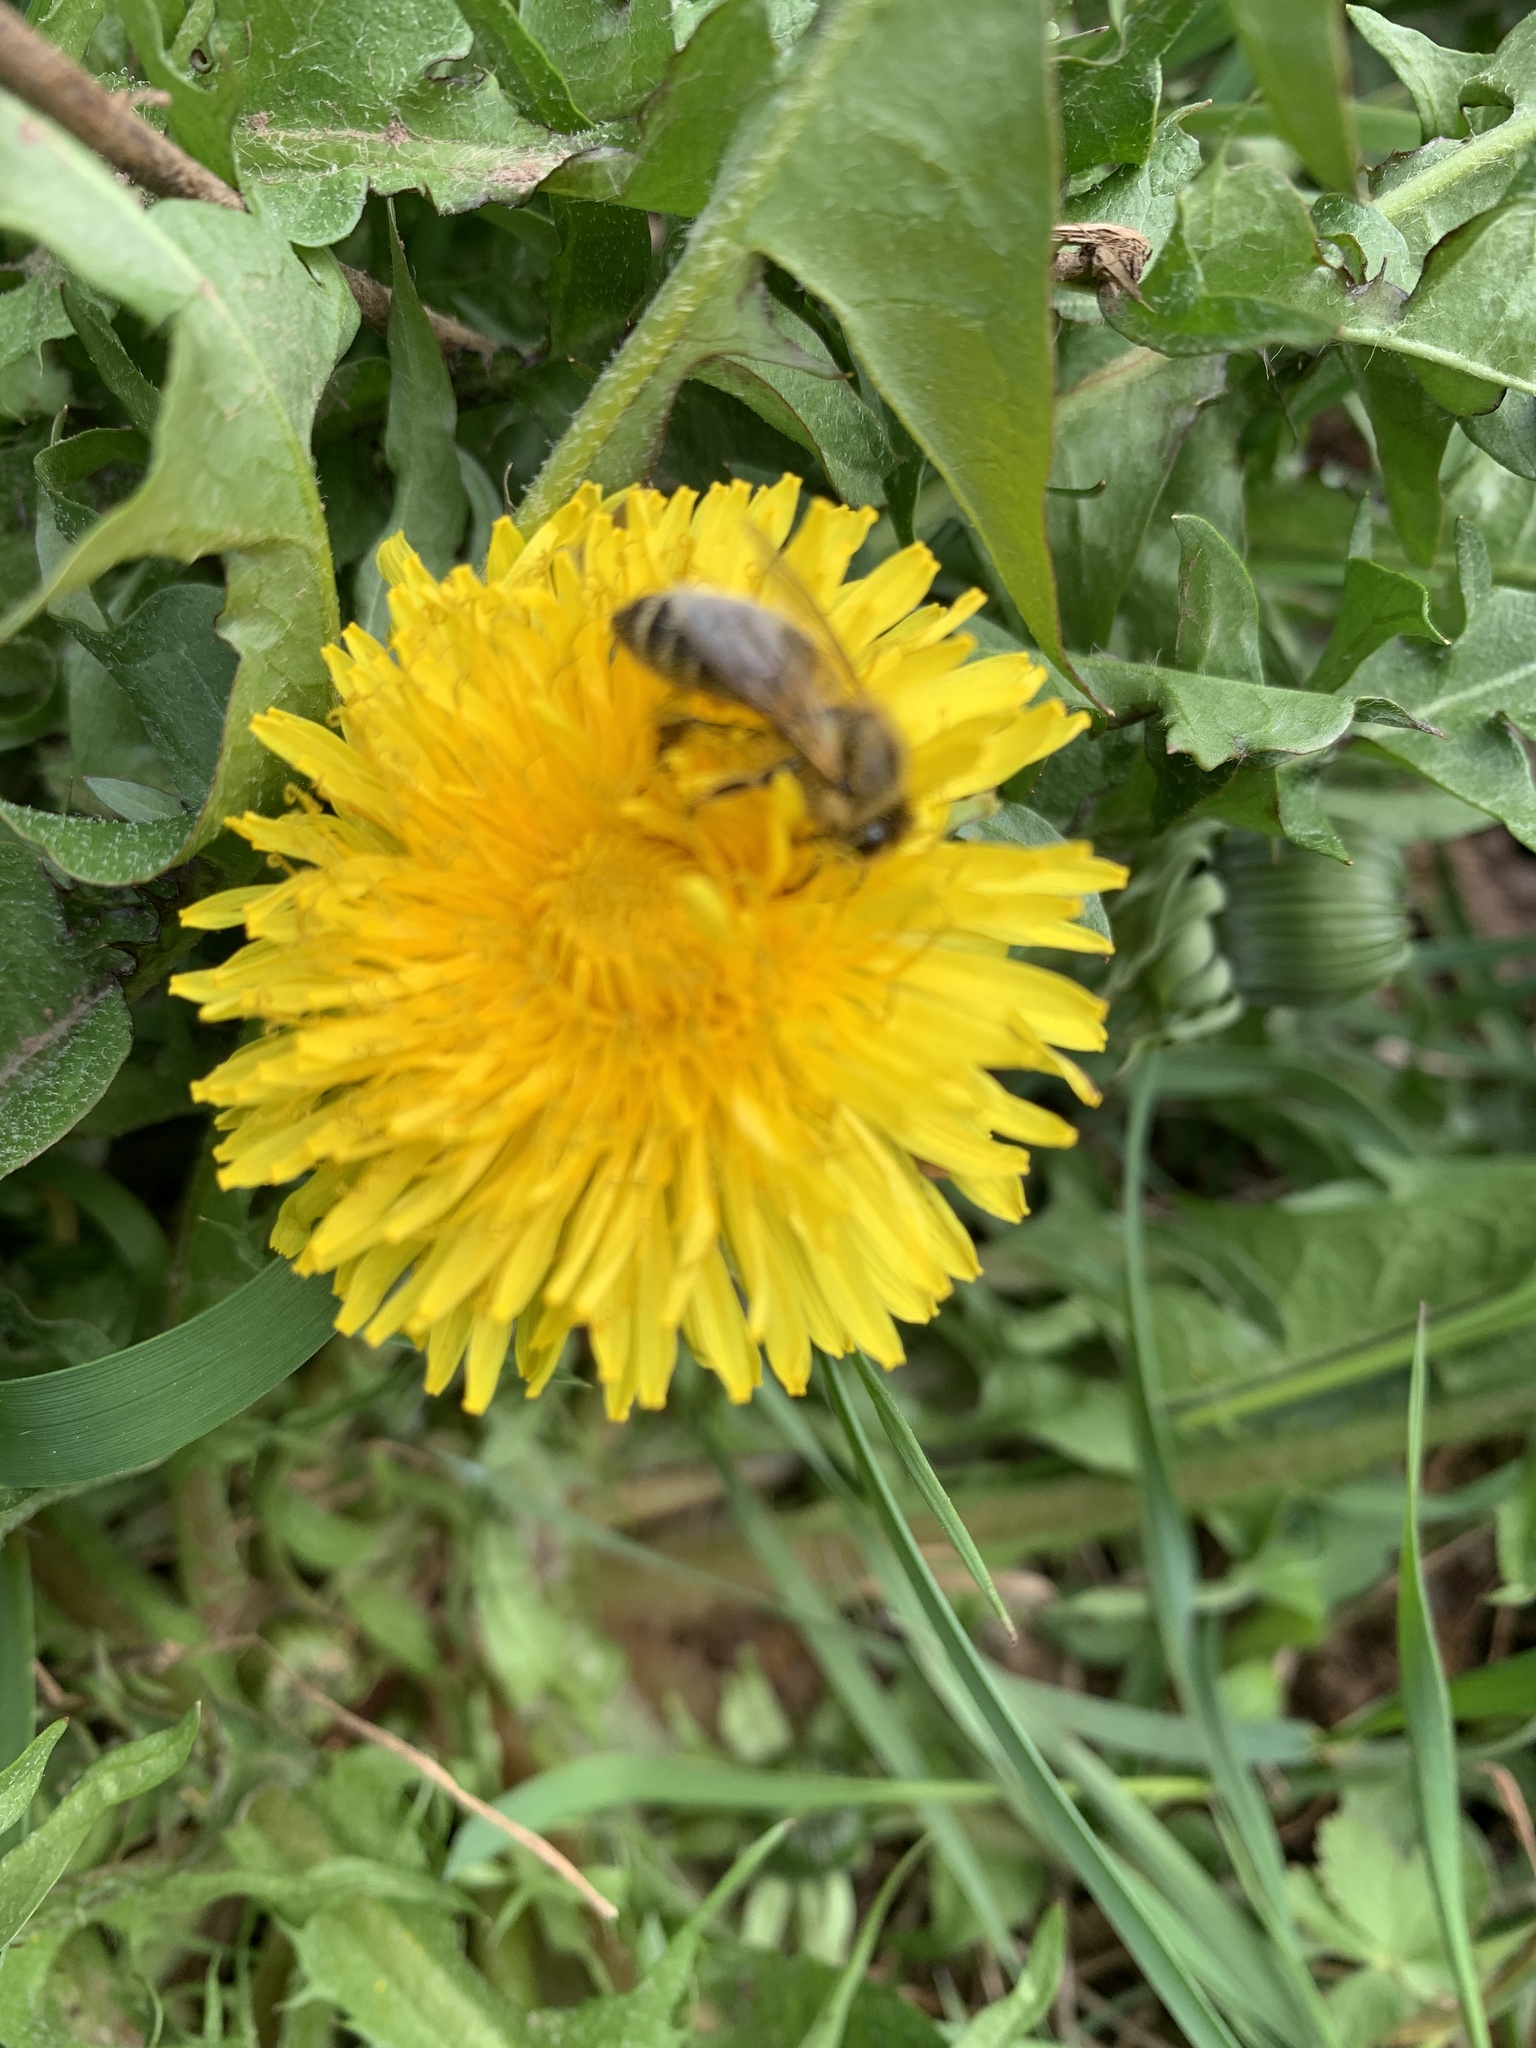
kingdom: Animalia
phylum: Arthropoda
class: Insecta
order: Hymenoptera
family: Apidae
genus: Apis
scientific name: Apis mellifera
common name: Honey bee
